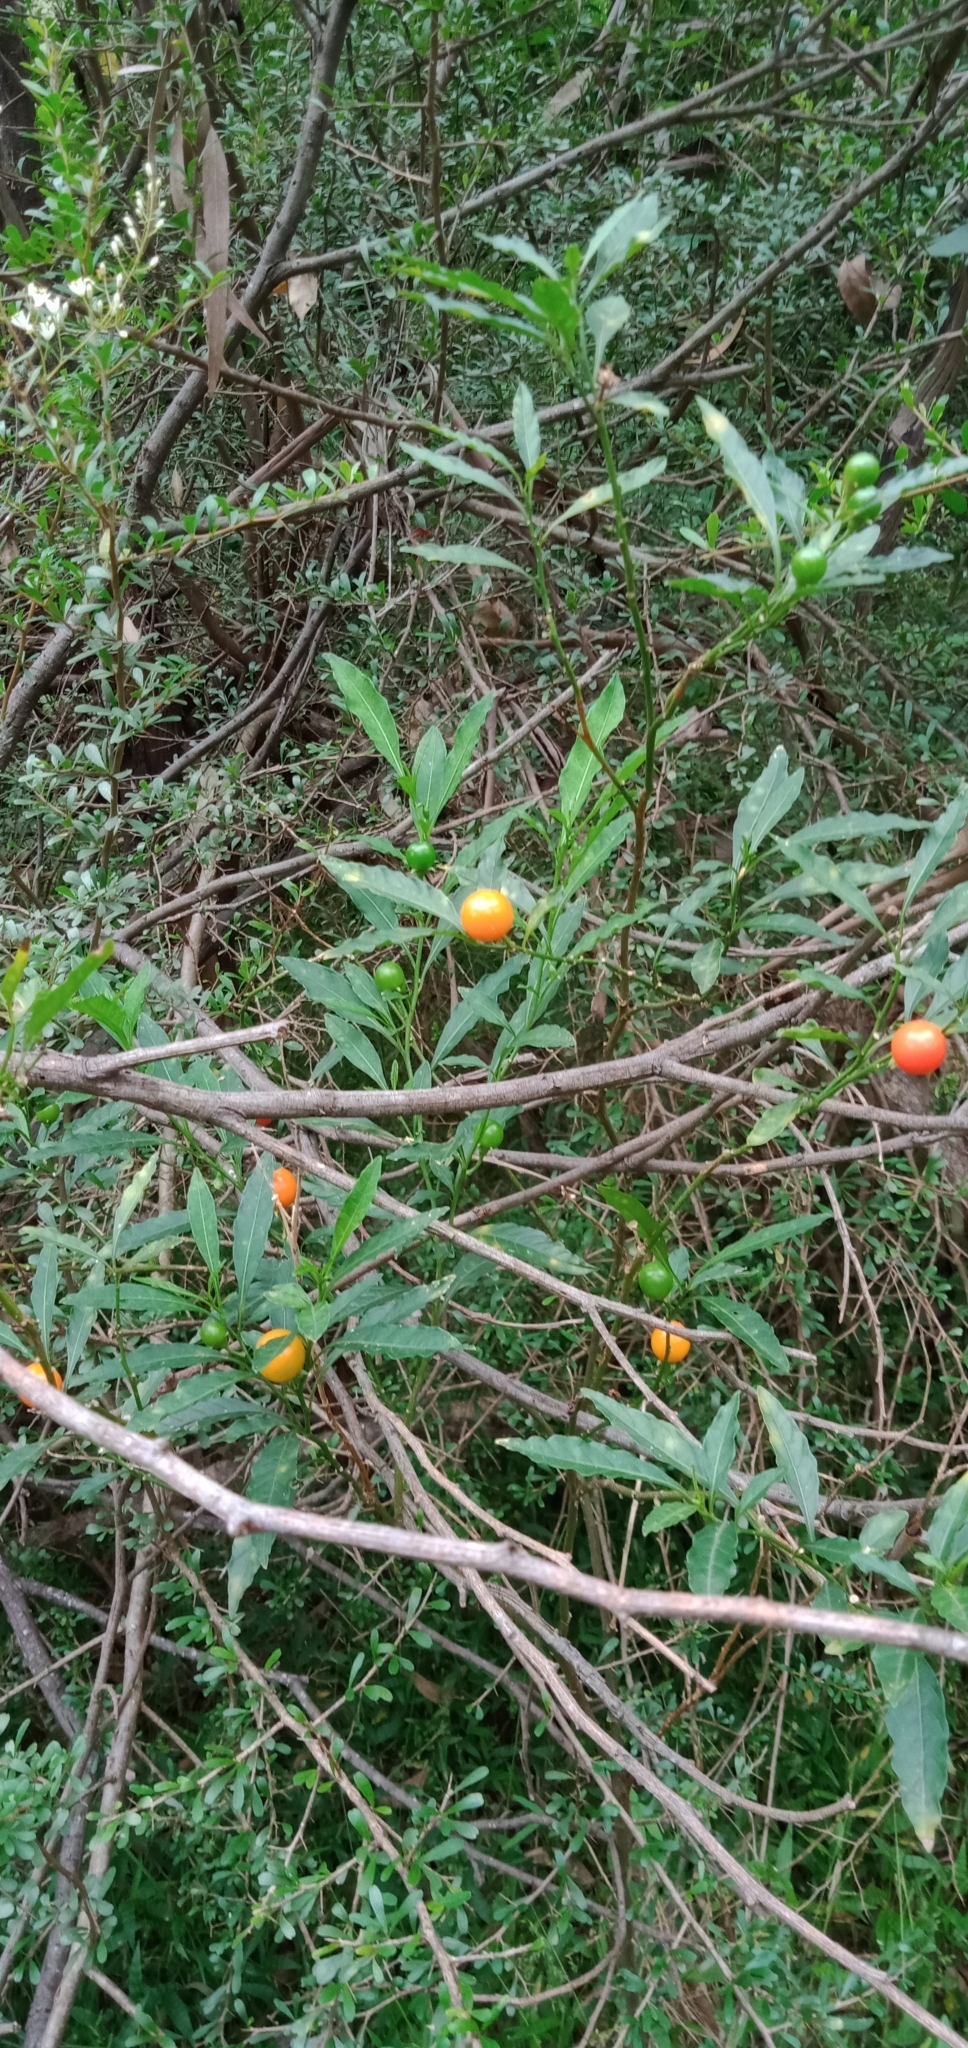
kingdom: Plantae
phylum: Tracheophyta
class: Magnoliopsida
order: Solanales
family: Solanaceae
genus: Solanum
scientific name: Solanum pseudocapsicum
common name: Jerusalem cherry
